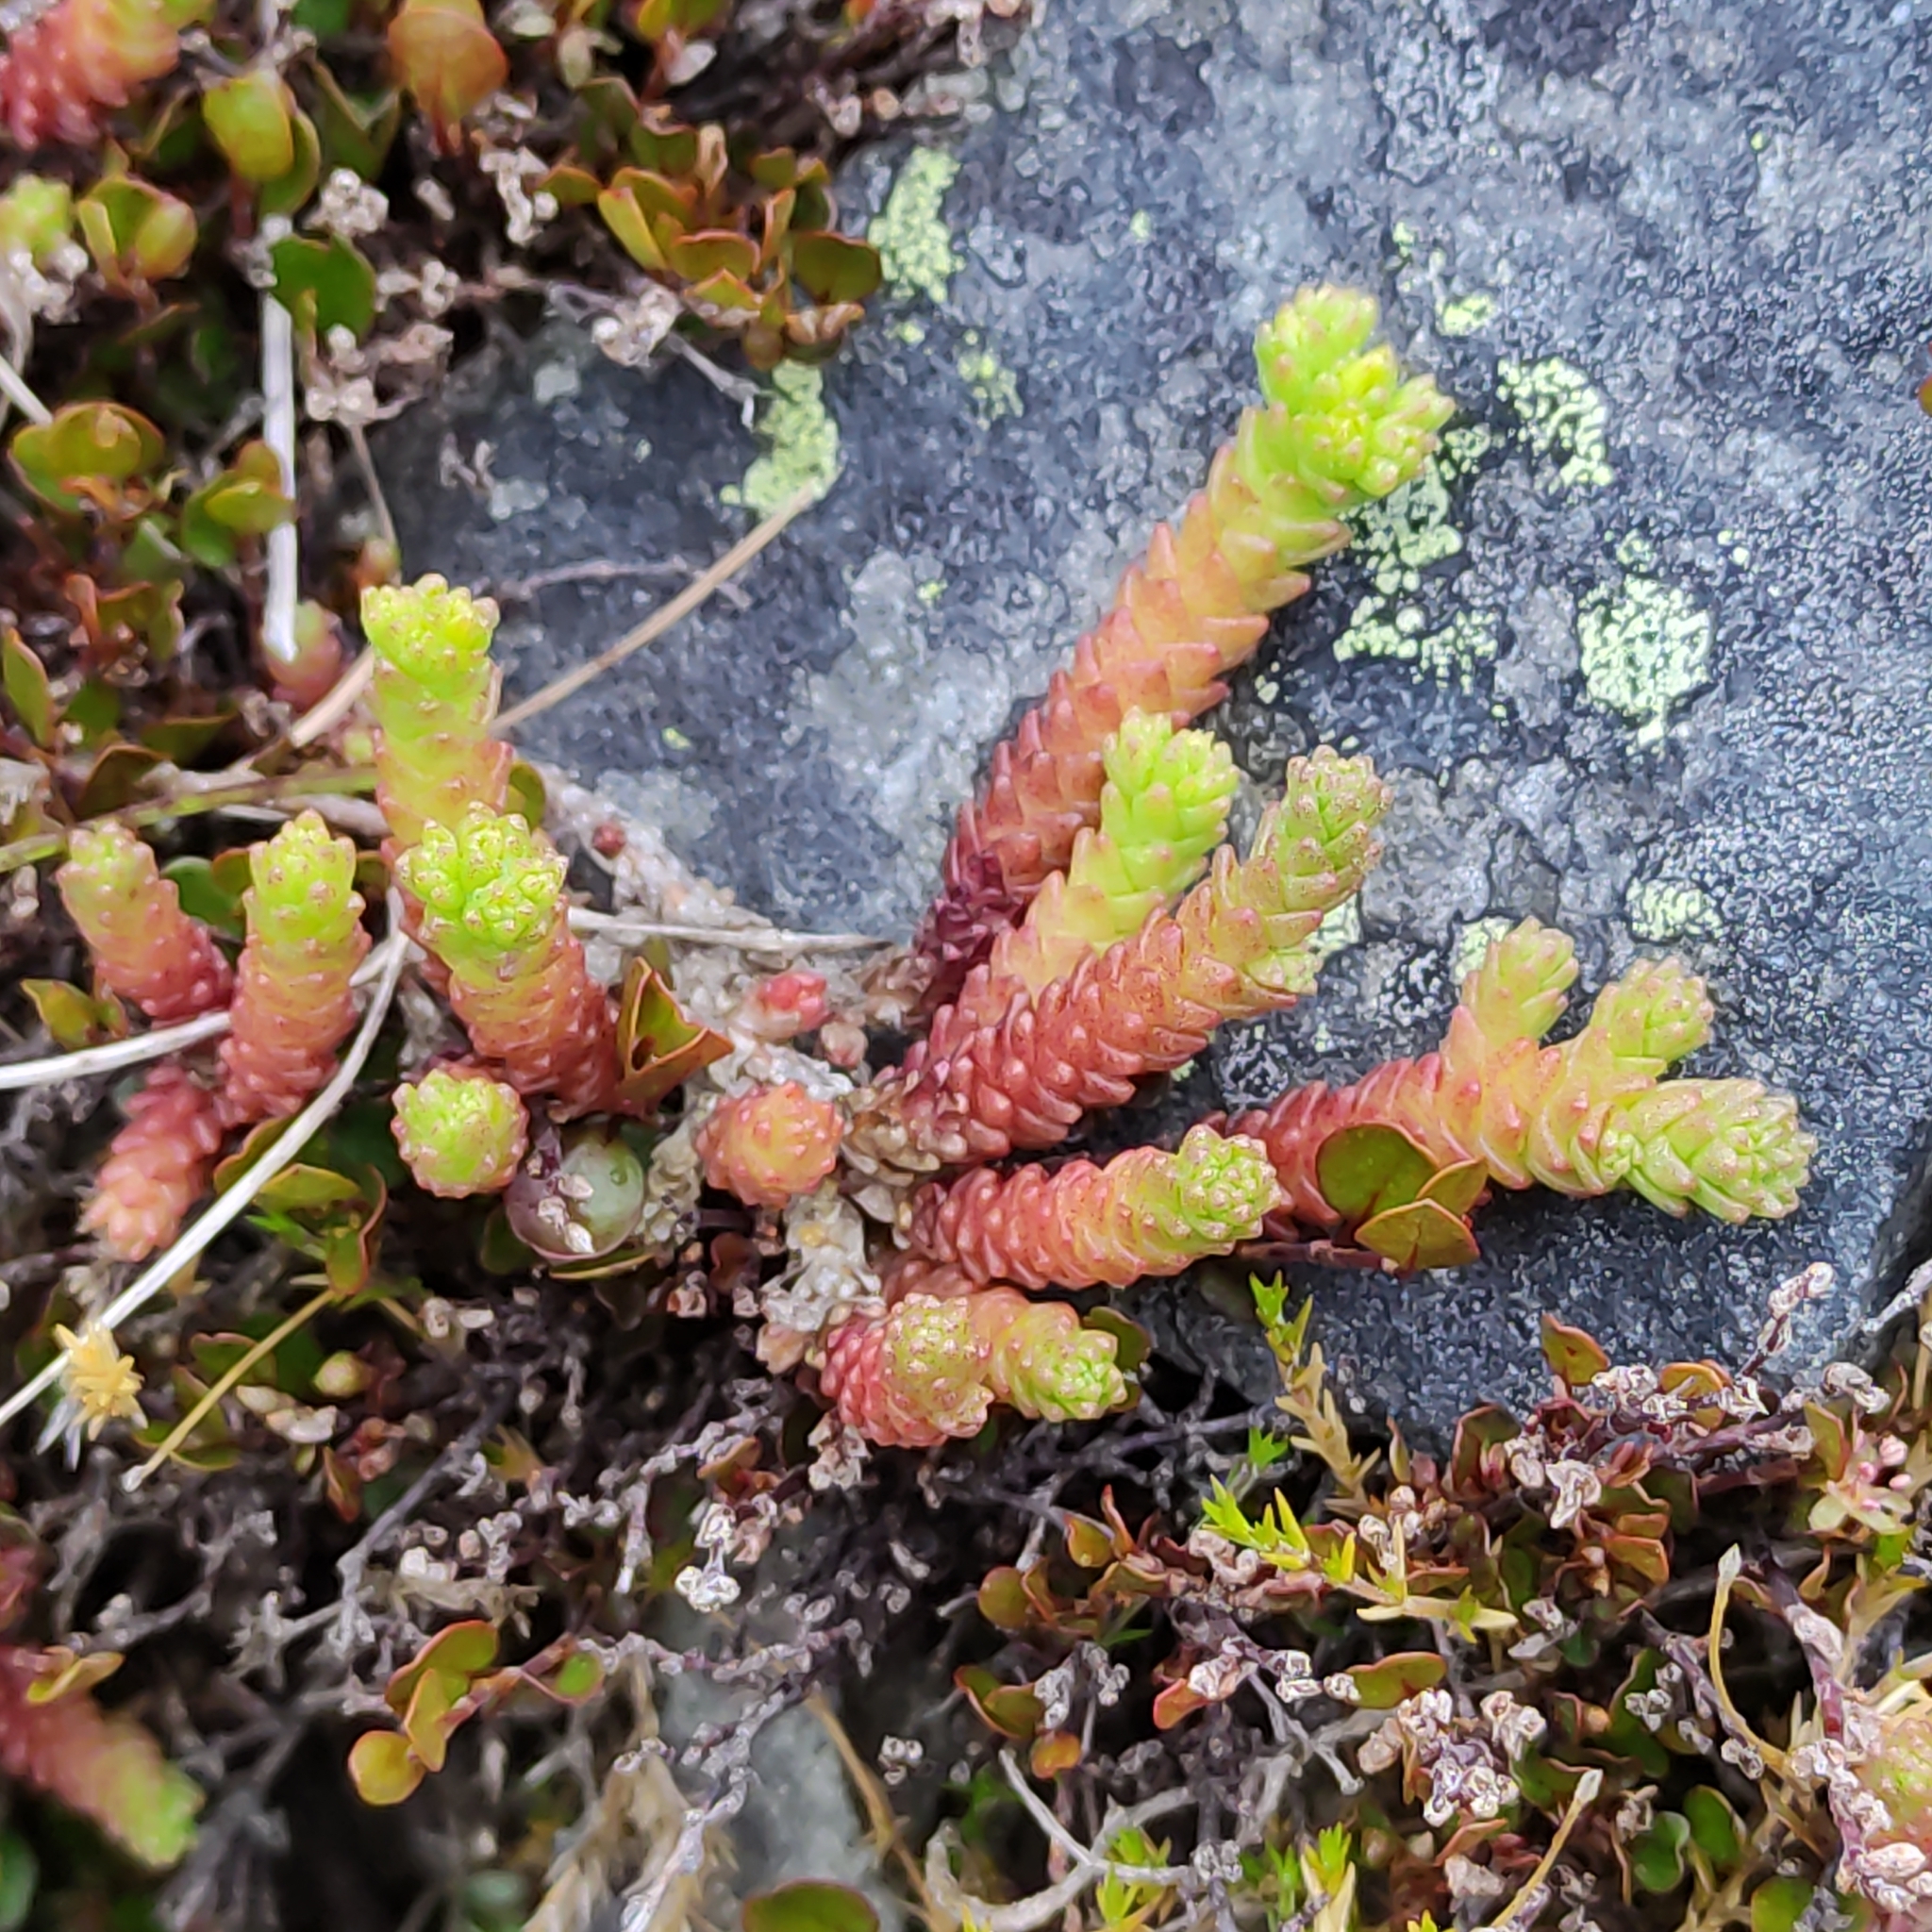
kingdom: Plantae
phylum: Tracheophyta
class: Magnoliopsida
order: Saxifragales
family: Crassulaceae
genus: Sedum
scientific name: Sedum acre
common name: Biting stonecrop
